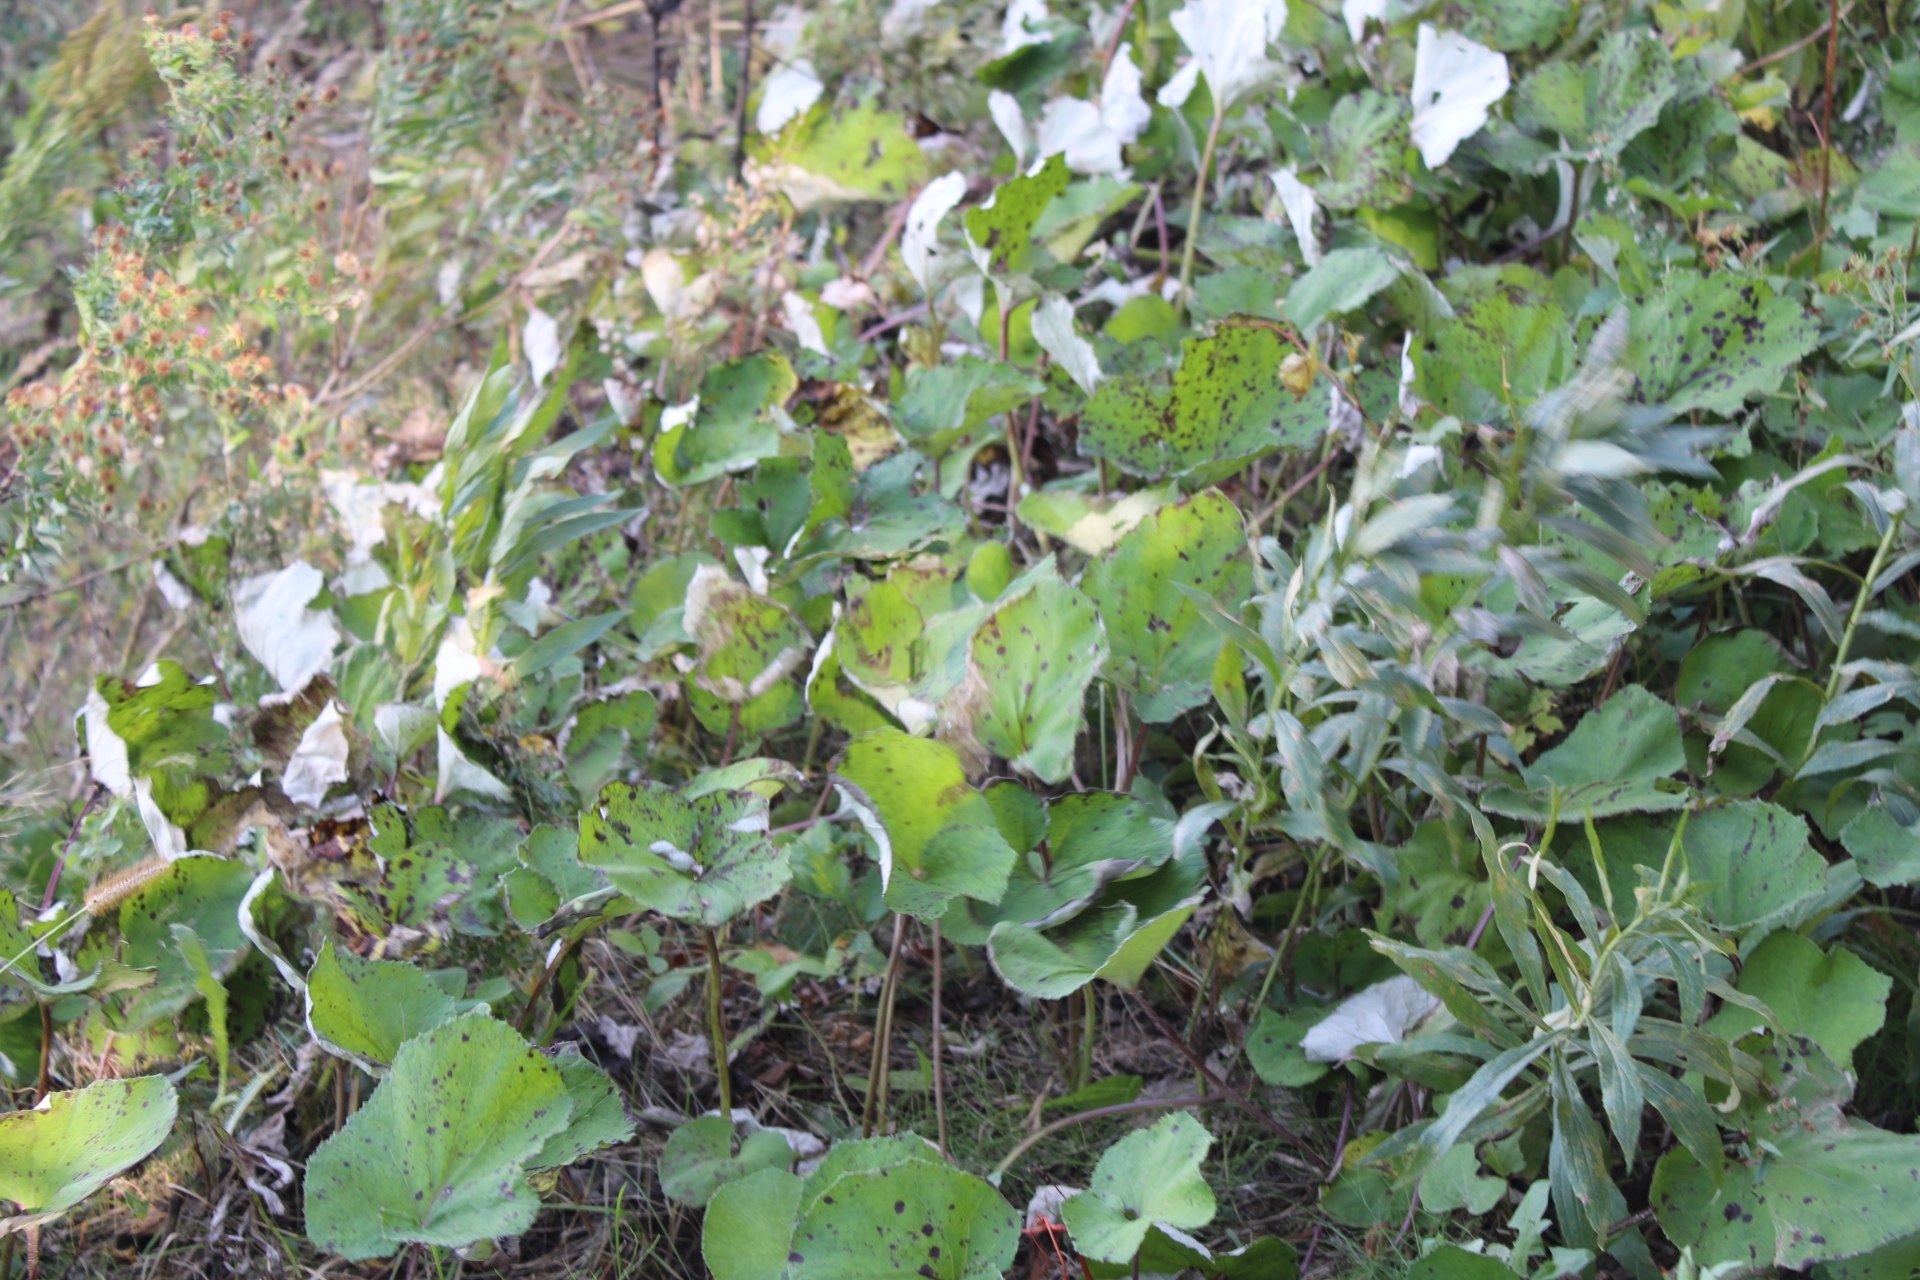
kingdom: Plantae
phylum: Tracheophyta
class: Magnoliopsida
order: Asterales
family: Asteraceae
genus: Tussilago
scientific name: Tussilago farfara
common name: Coltsfoot
